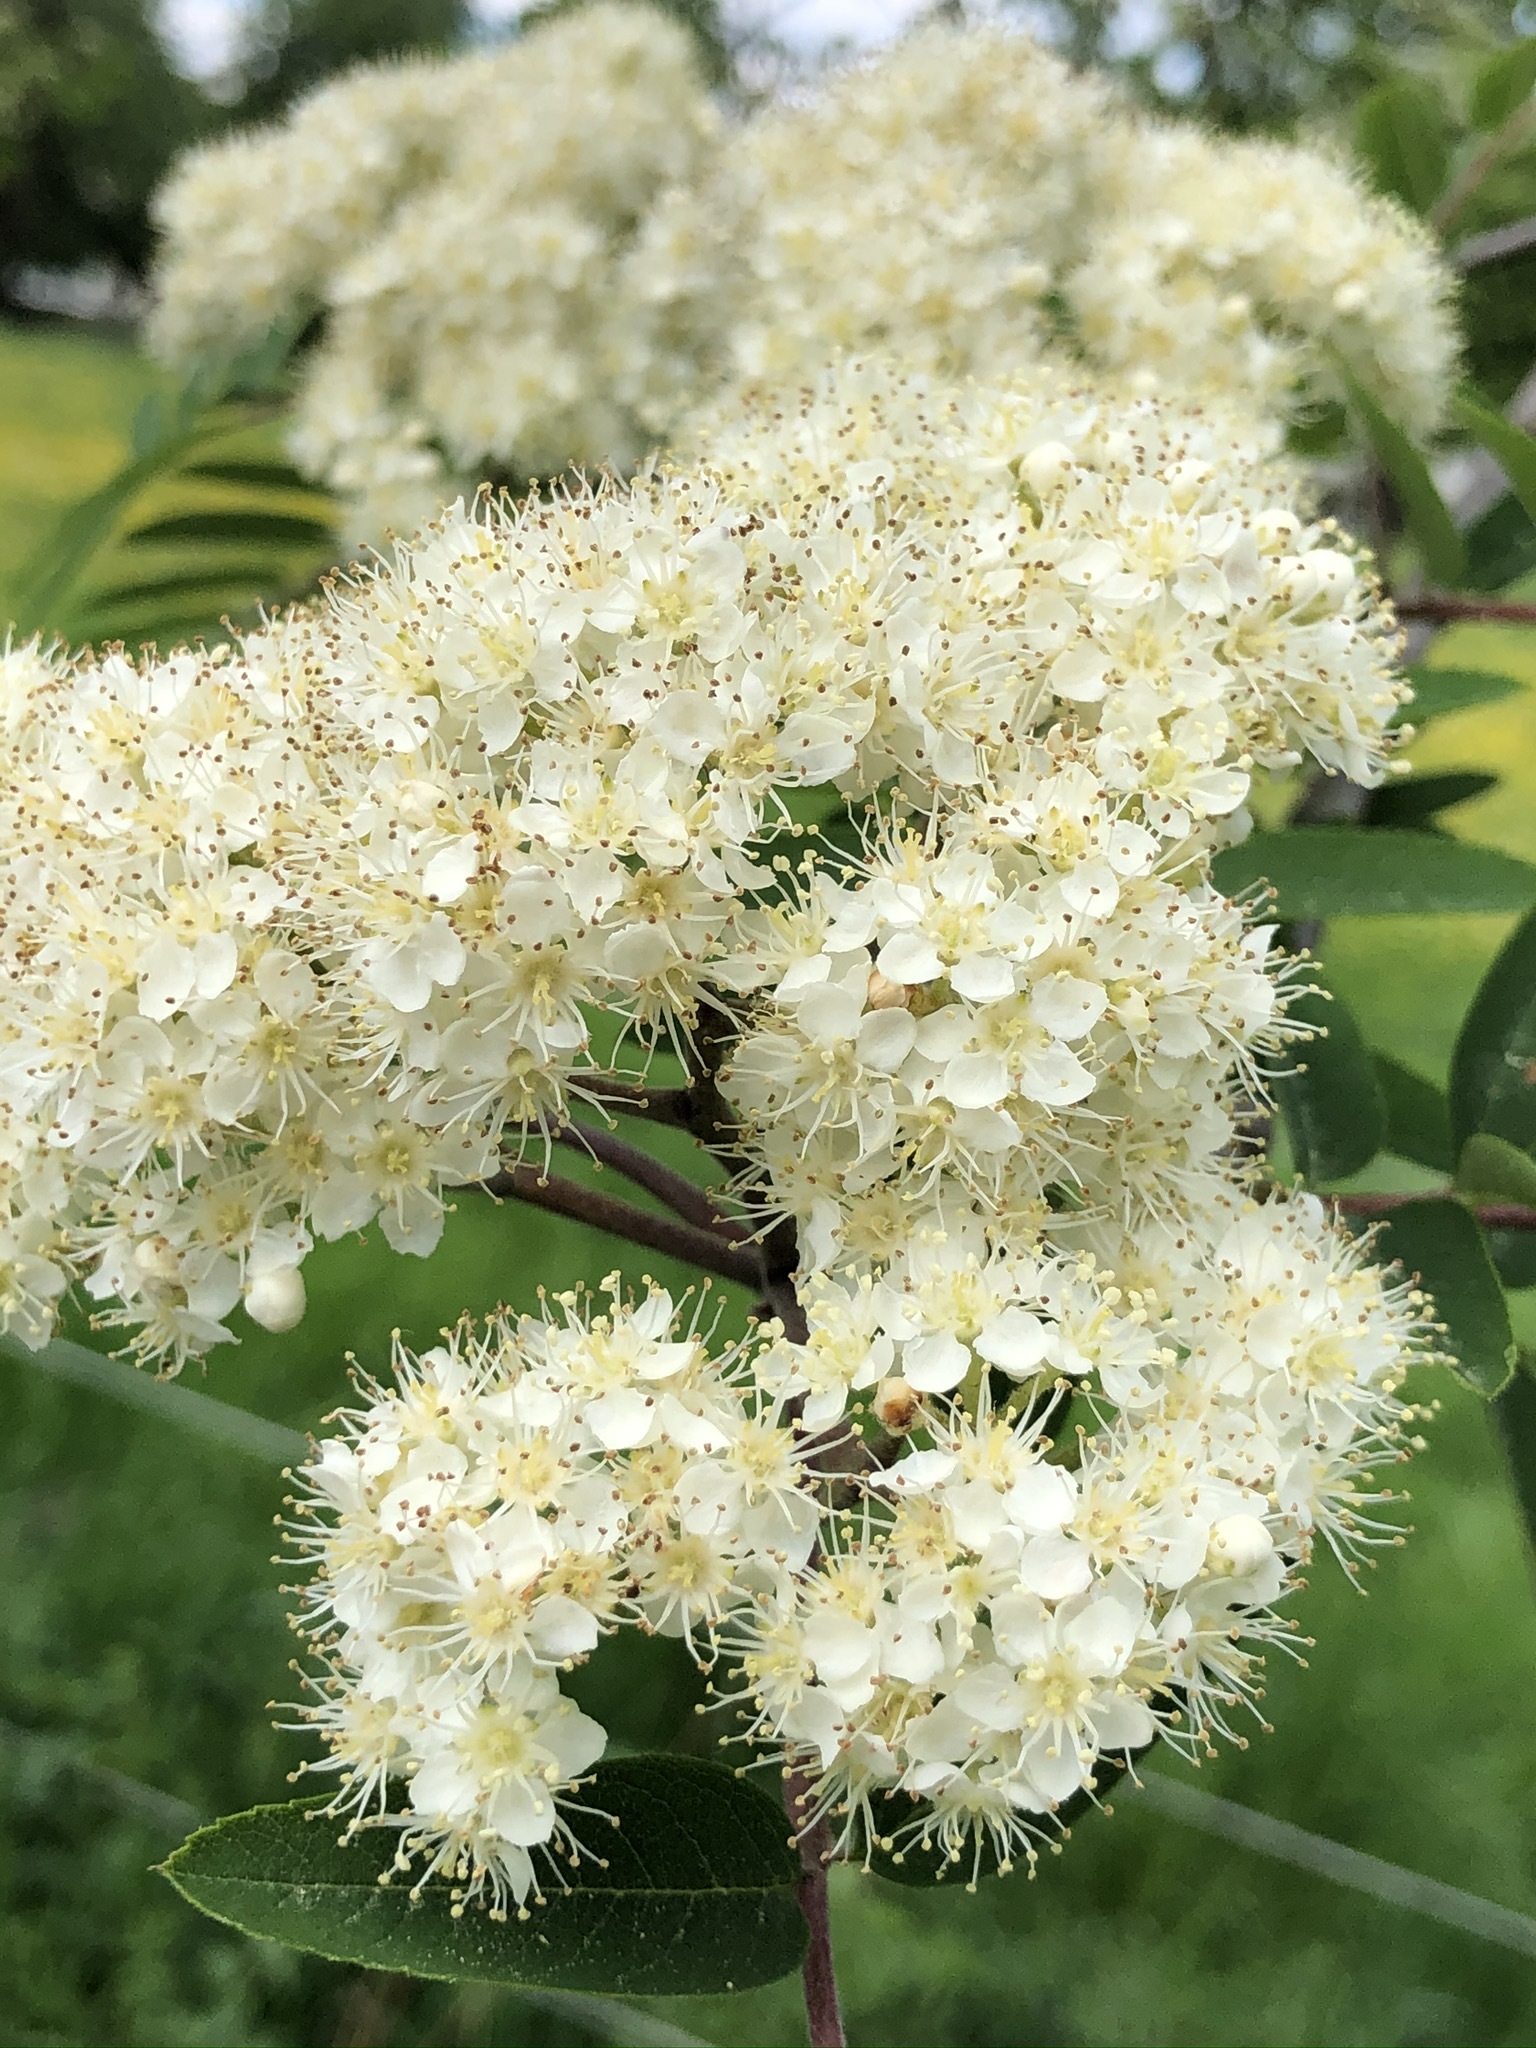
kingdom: Plantae
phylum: Tracheophyta
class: Magnoliopsida
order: Rosales
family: Rosaceae
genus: Sorbus
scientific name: Sorbus aucuparia
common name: Rowan
